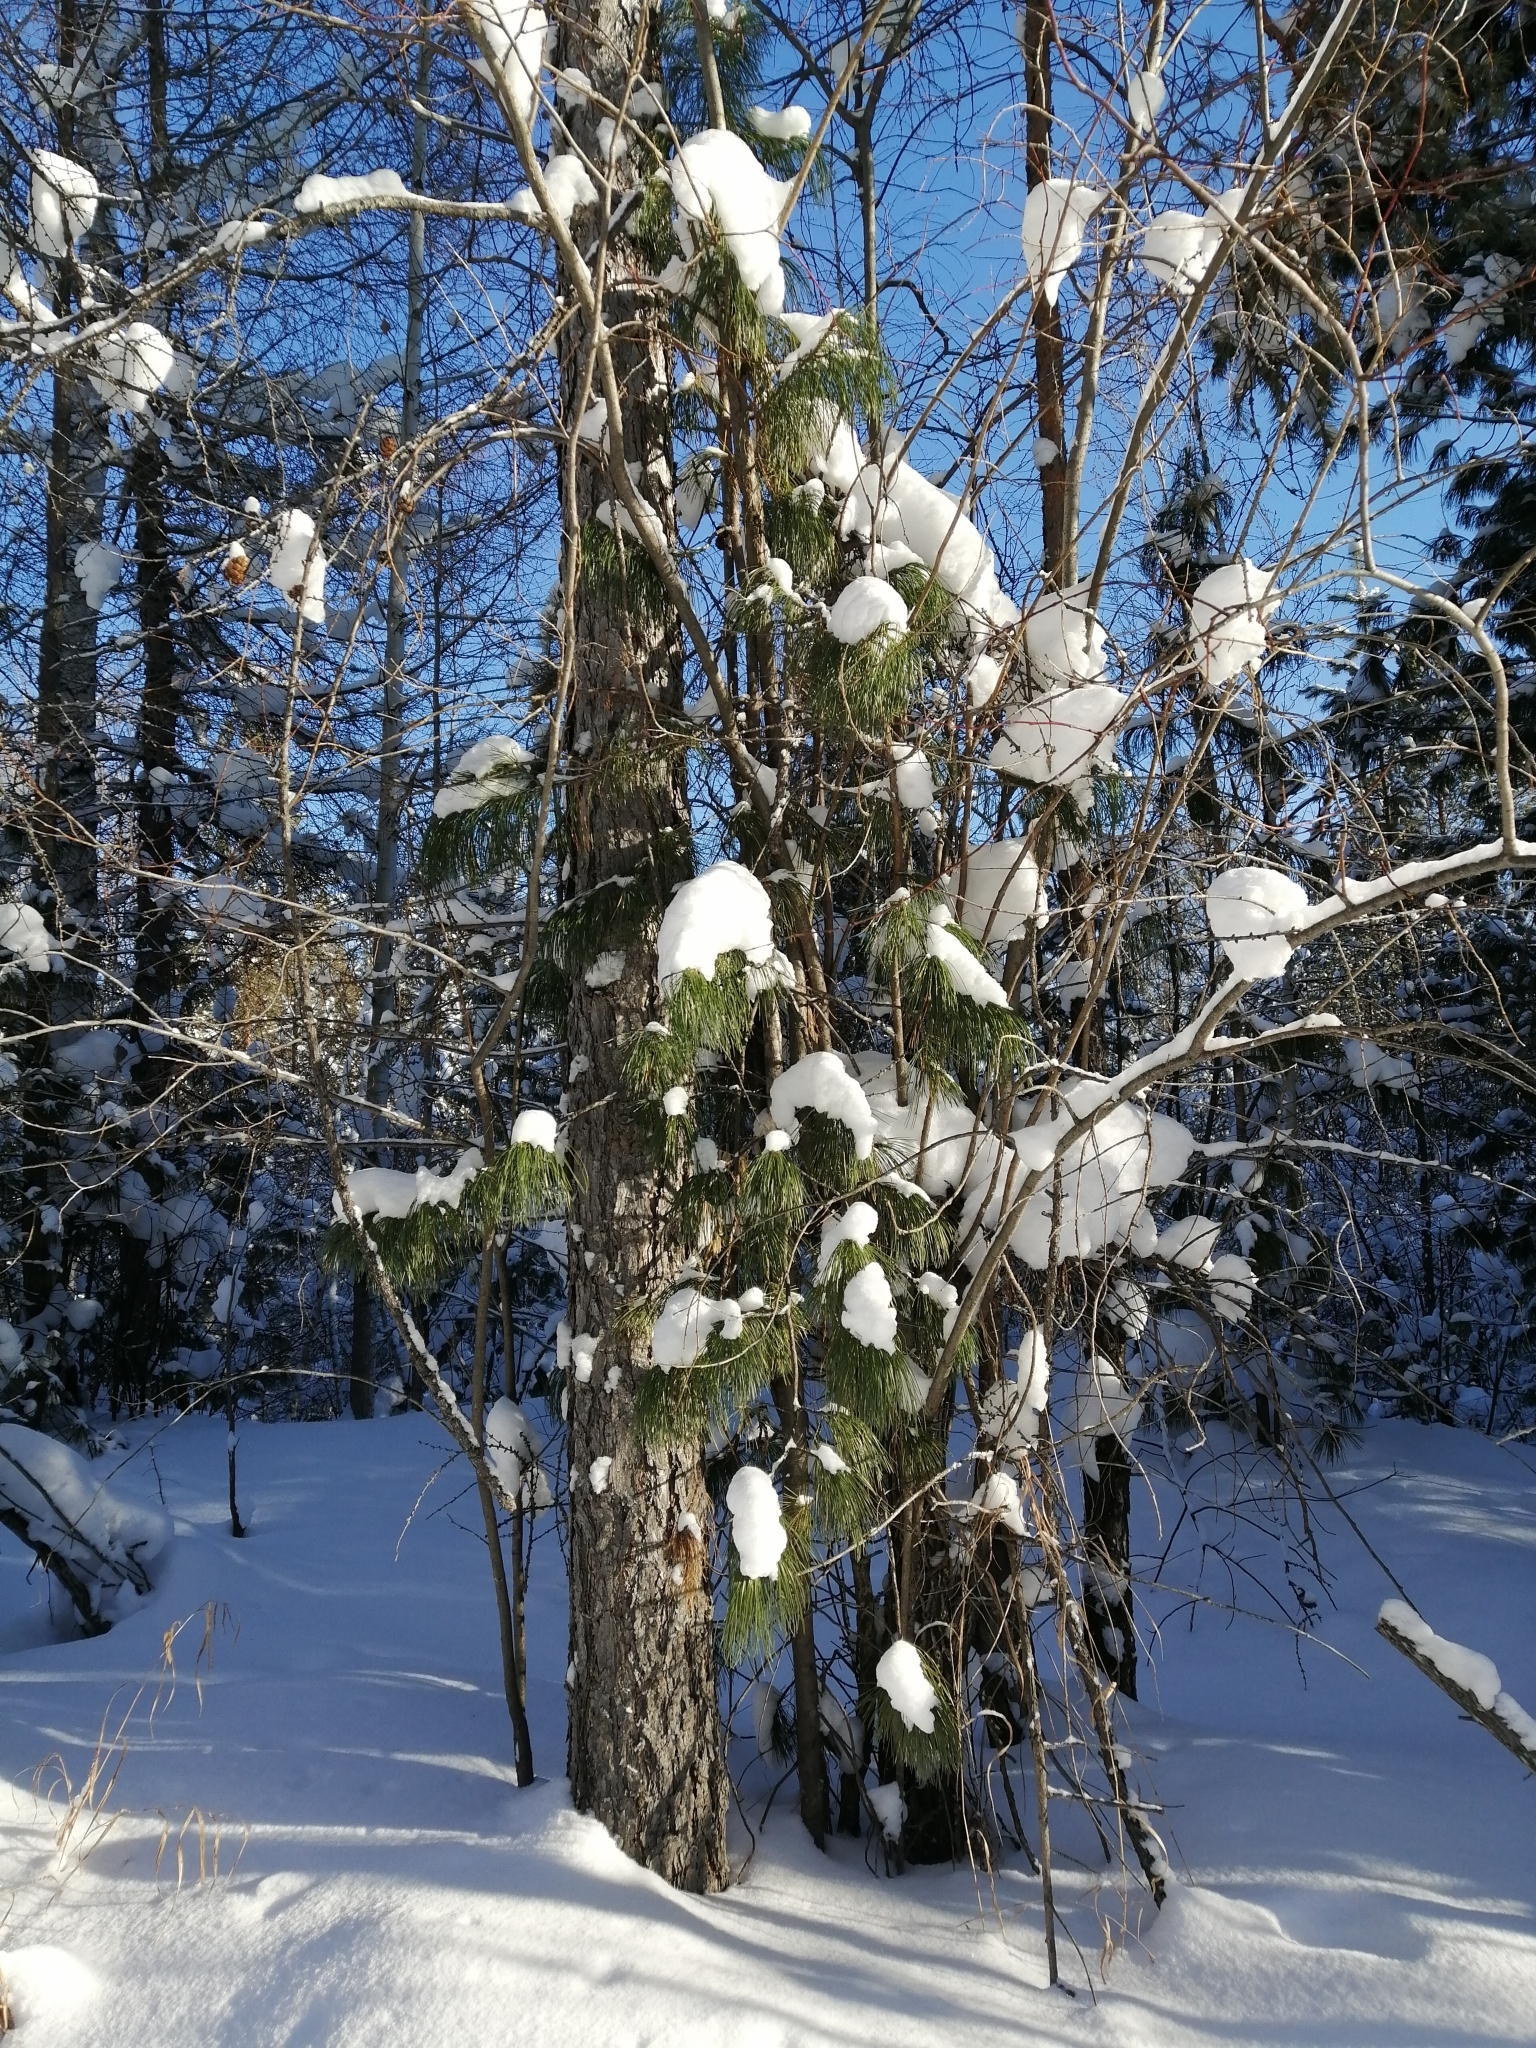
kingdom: Plantae
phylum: Tracheophyta
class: Pinopsida
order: Pinales
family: Pinaceae
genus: Pinus
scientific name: Pinus sibirica
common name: Siberian pine
